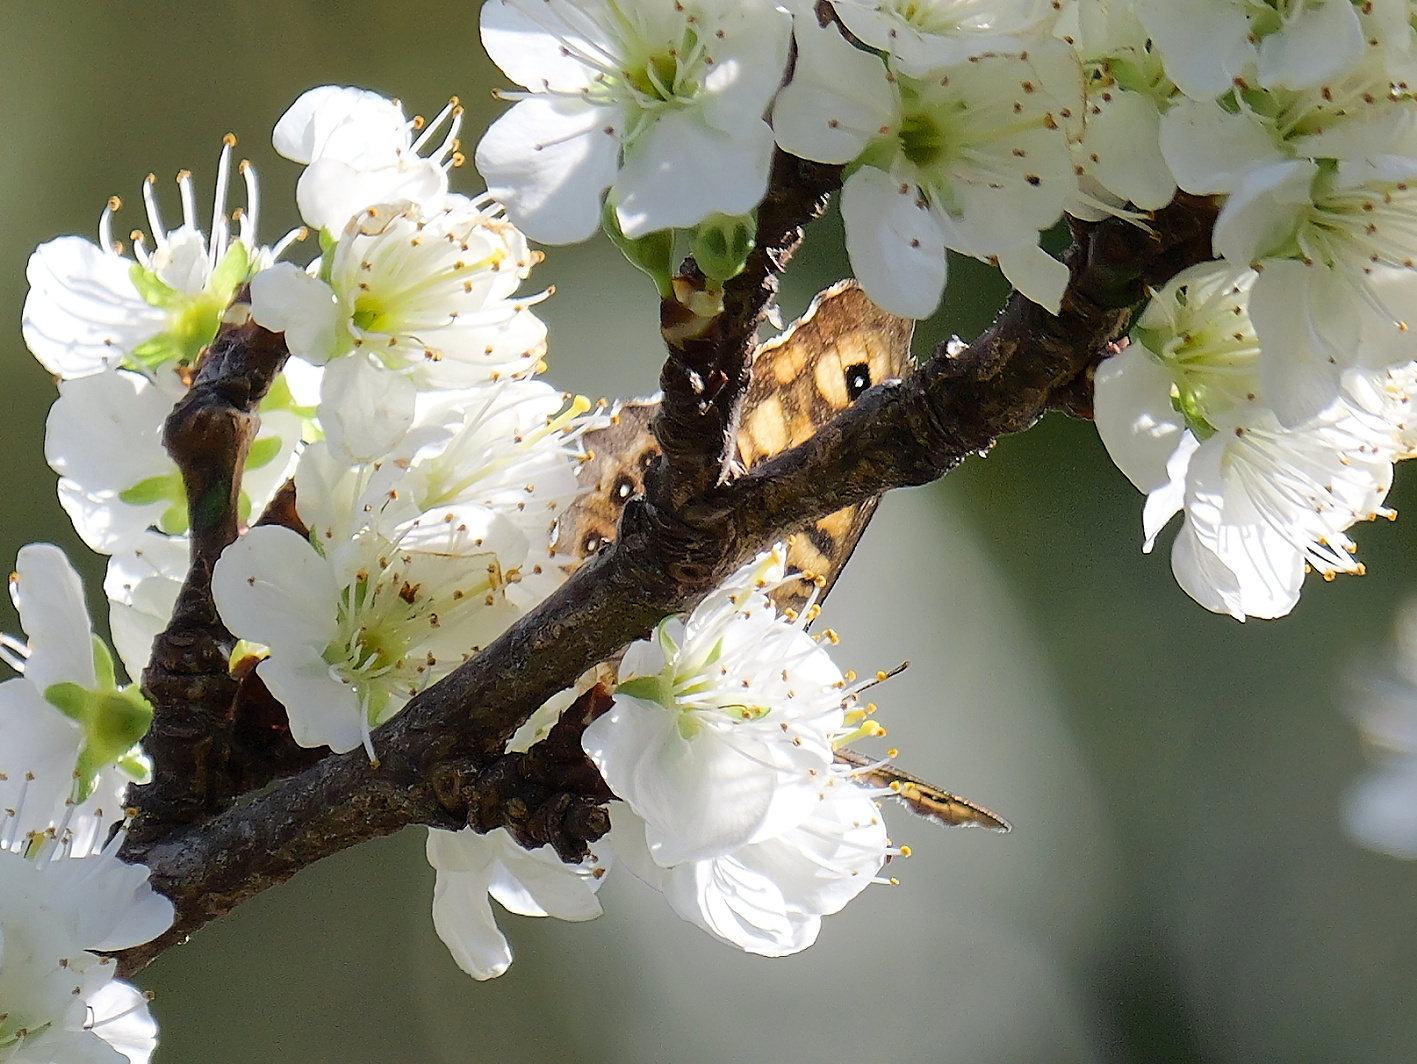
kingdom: Animalia
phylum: Arthropoda
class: Insecta
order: Lepidoptera
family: Nymphalidae
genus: Pararge
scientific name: Pararge aegeria
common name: Speckled wood
